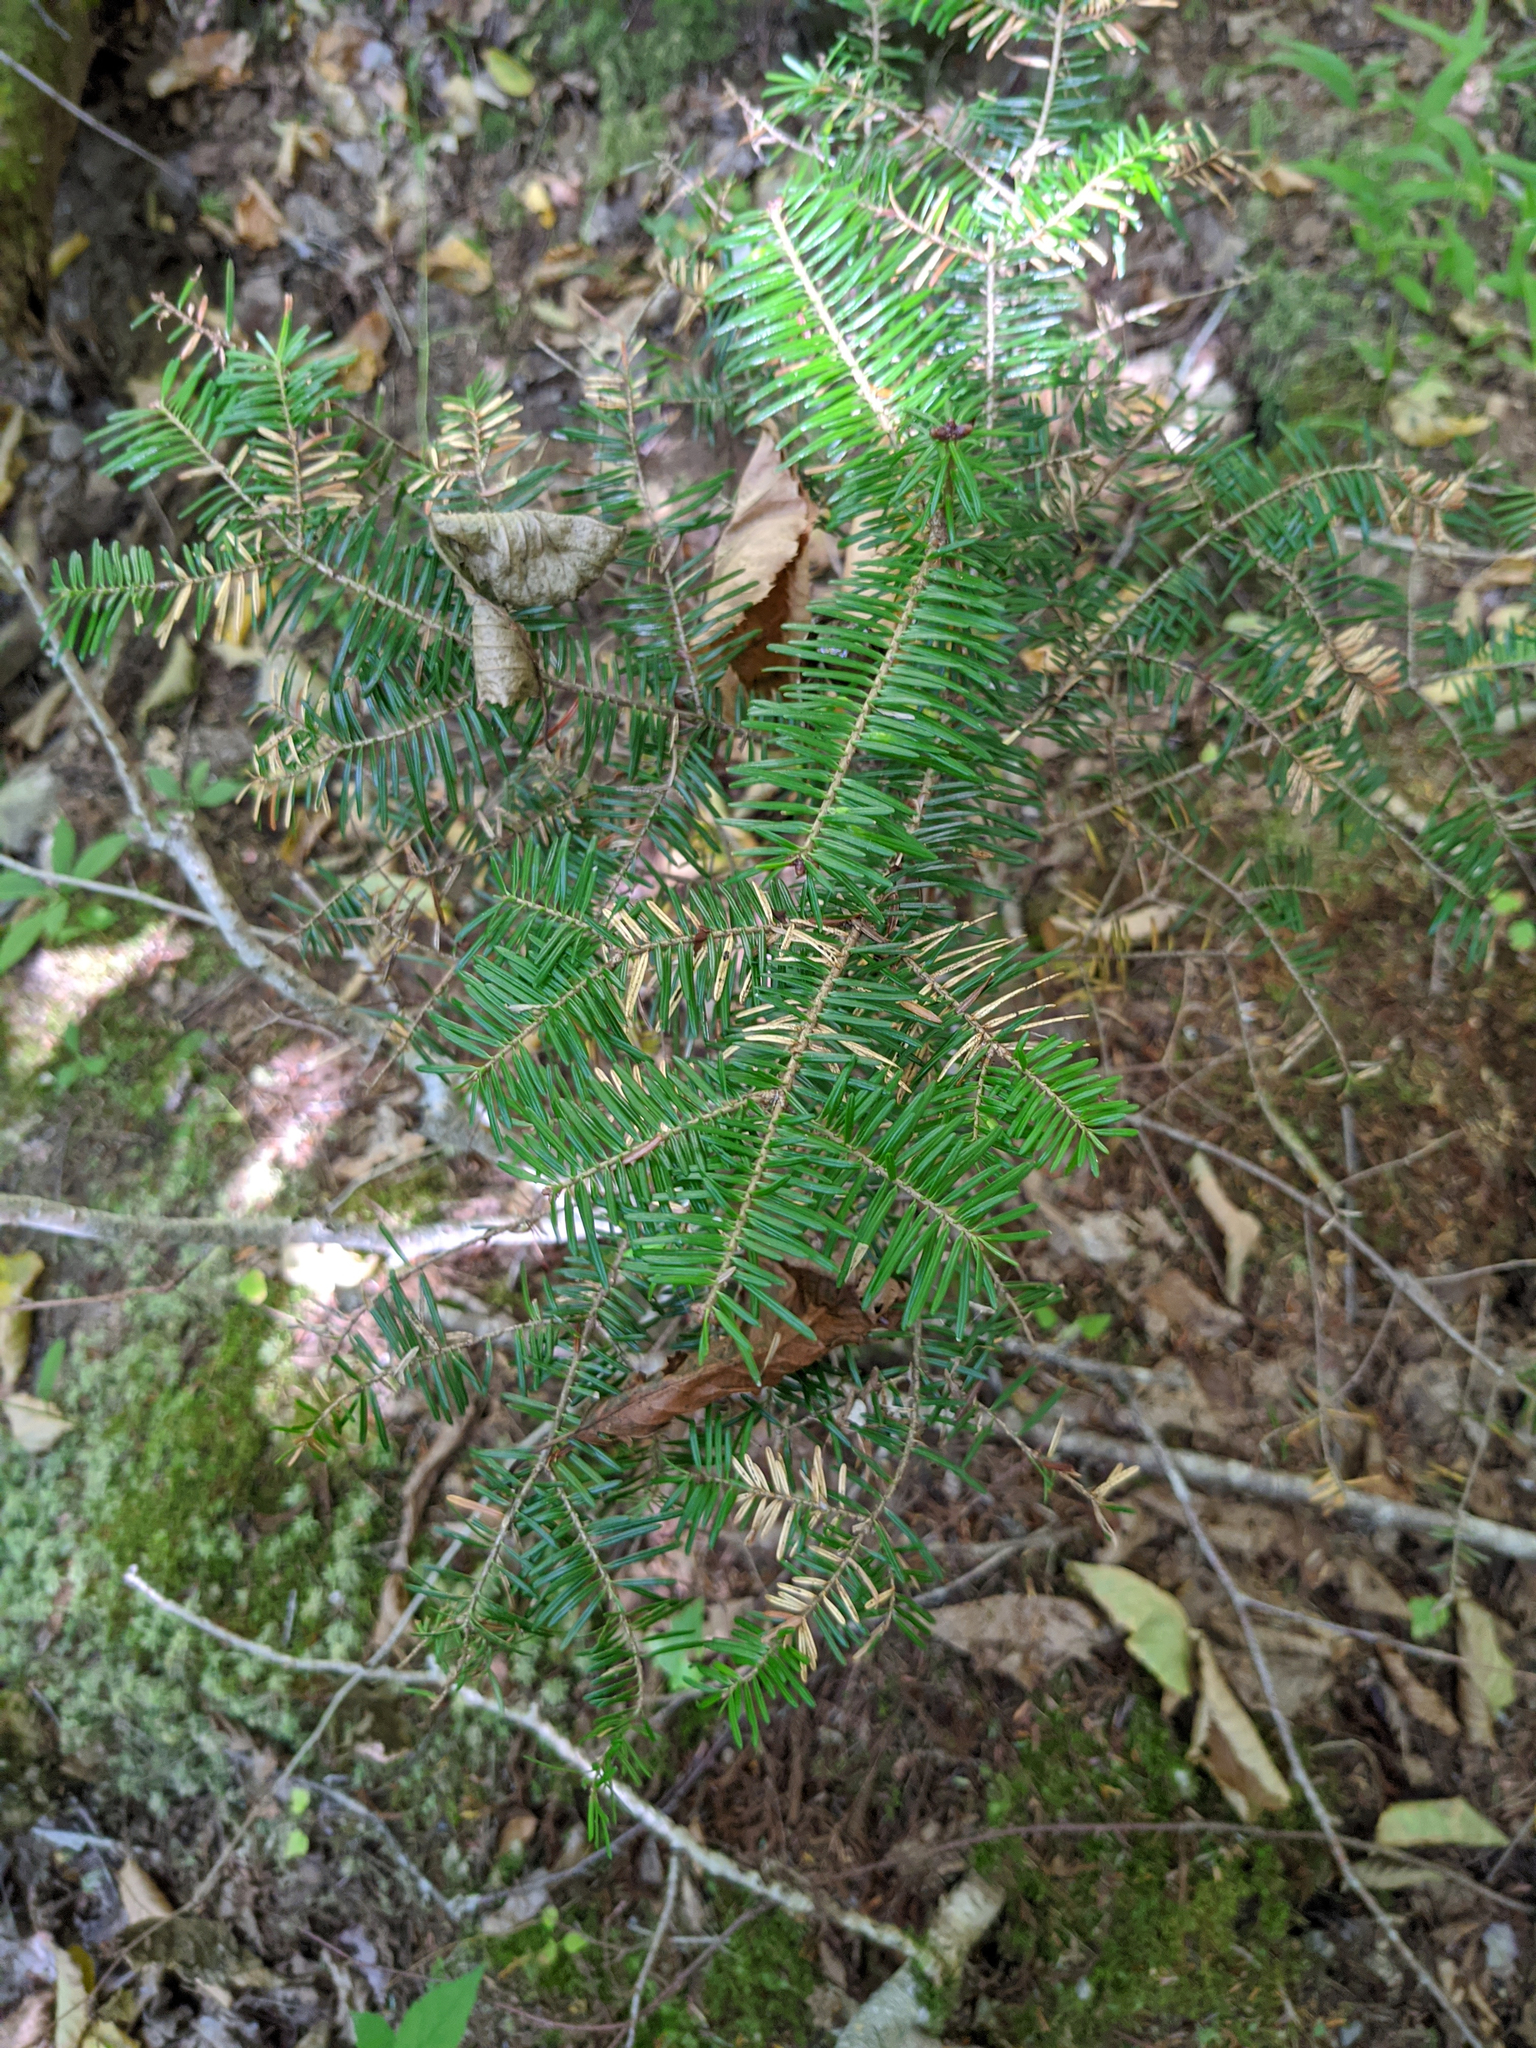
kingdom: Plantae
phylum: Tracheophyta
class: Pinopsida
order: Pinales
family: Pinaceae
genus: Abies
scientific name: Abies balsamea
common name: Balsam fir
